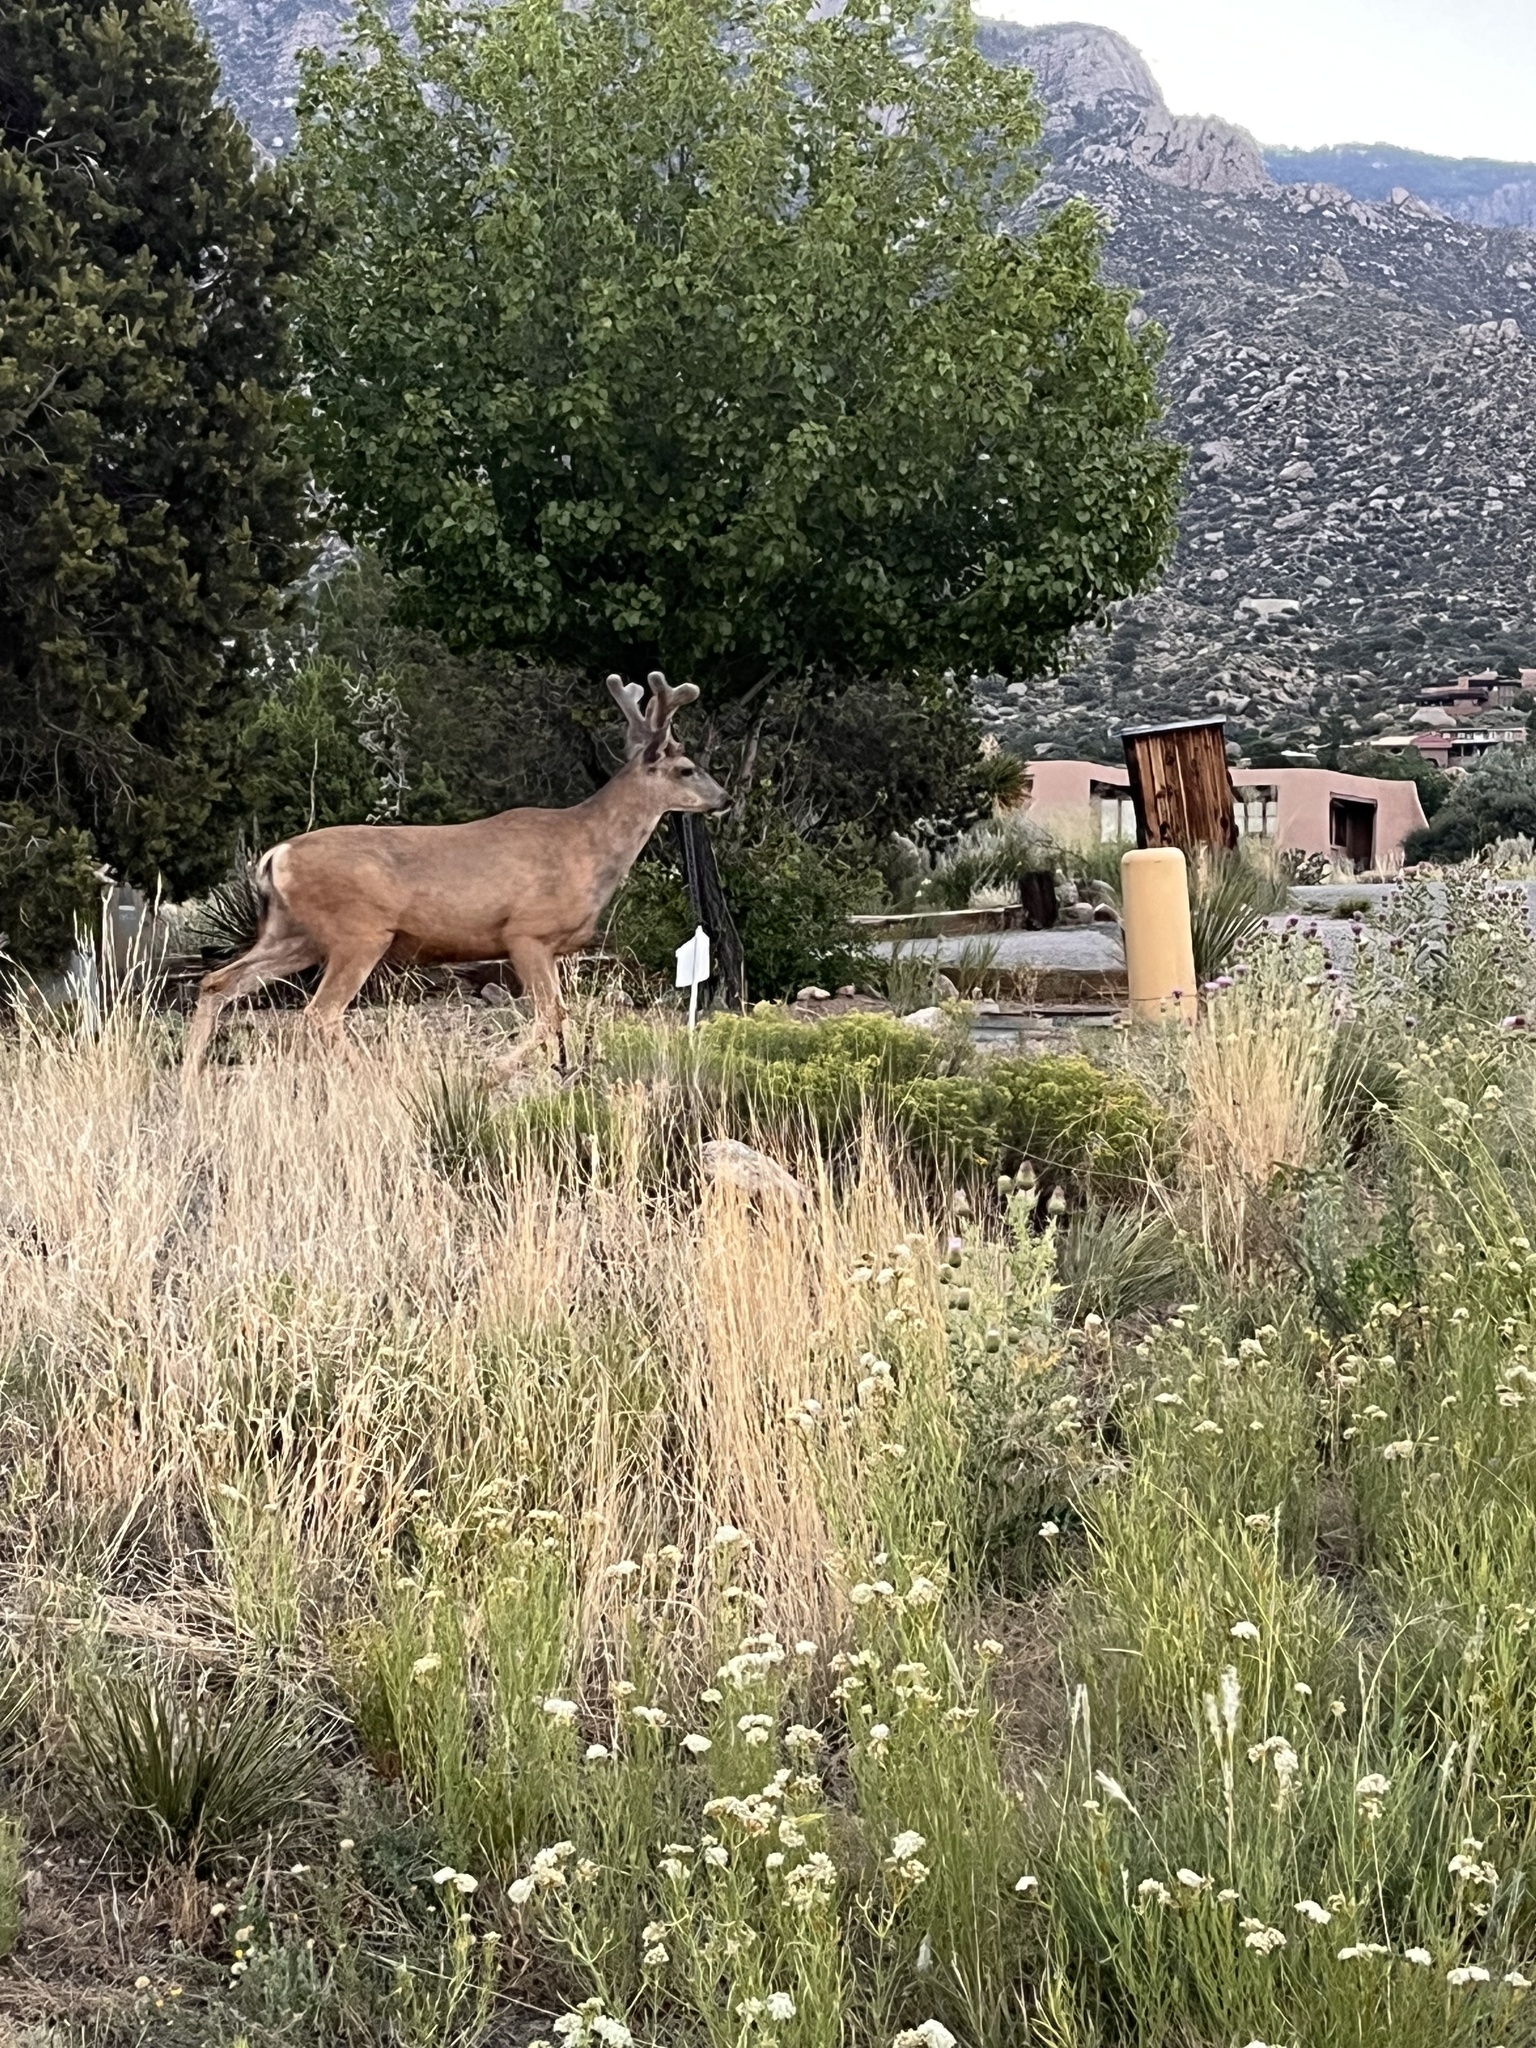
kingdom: Animalia
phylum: Chordata
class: Mammalia
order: Artiodactyla
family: Cervidae
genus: Odocoileus
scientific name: Odocoileus hemionus
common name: Mule deer
